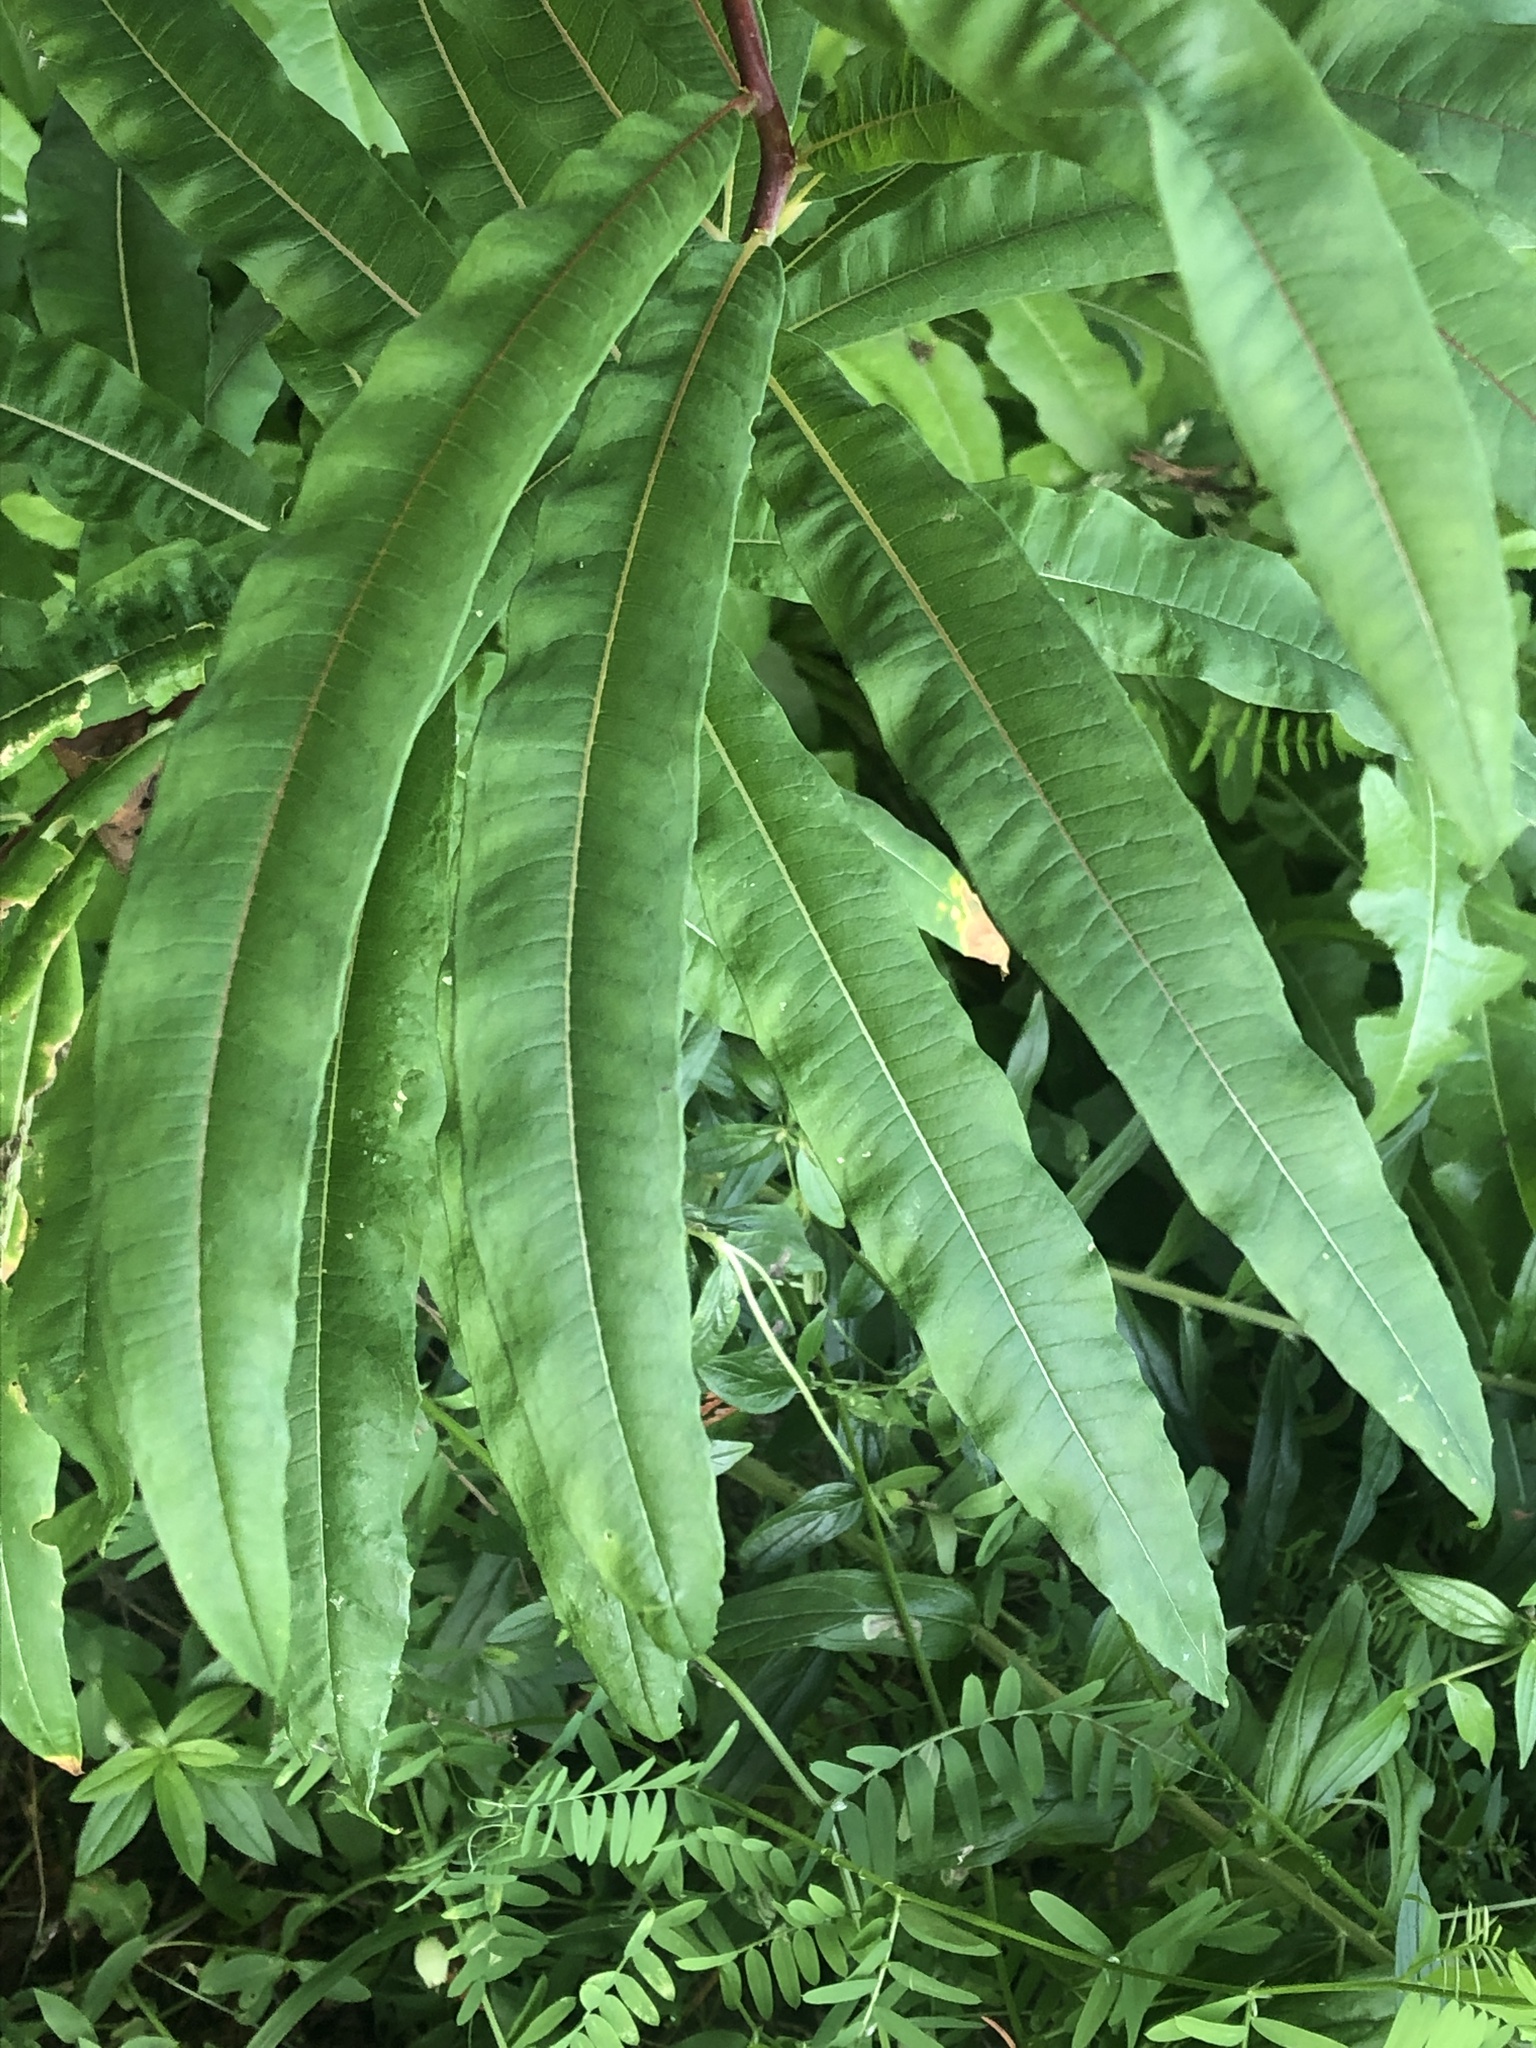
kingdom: Plantae
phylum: Tracheophyta
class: Magnoliopsida
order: Myrtales
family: Onagraceae
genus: Chamaenerion
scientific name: Chamaenerion angustifolium
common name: Fireweed
